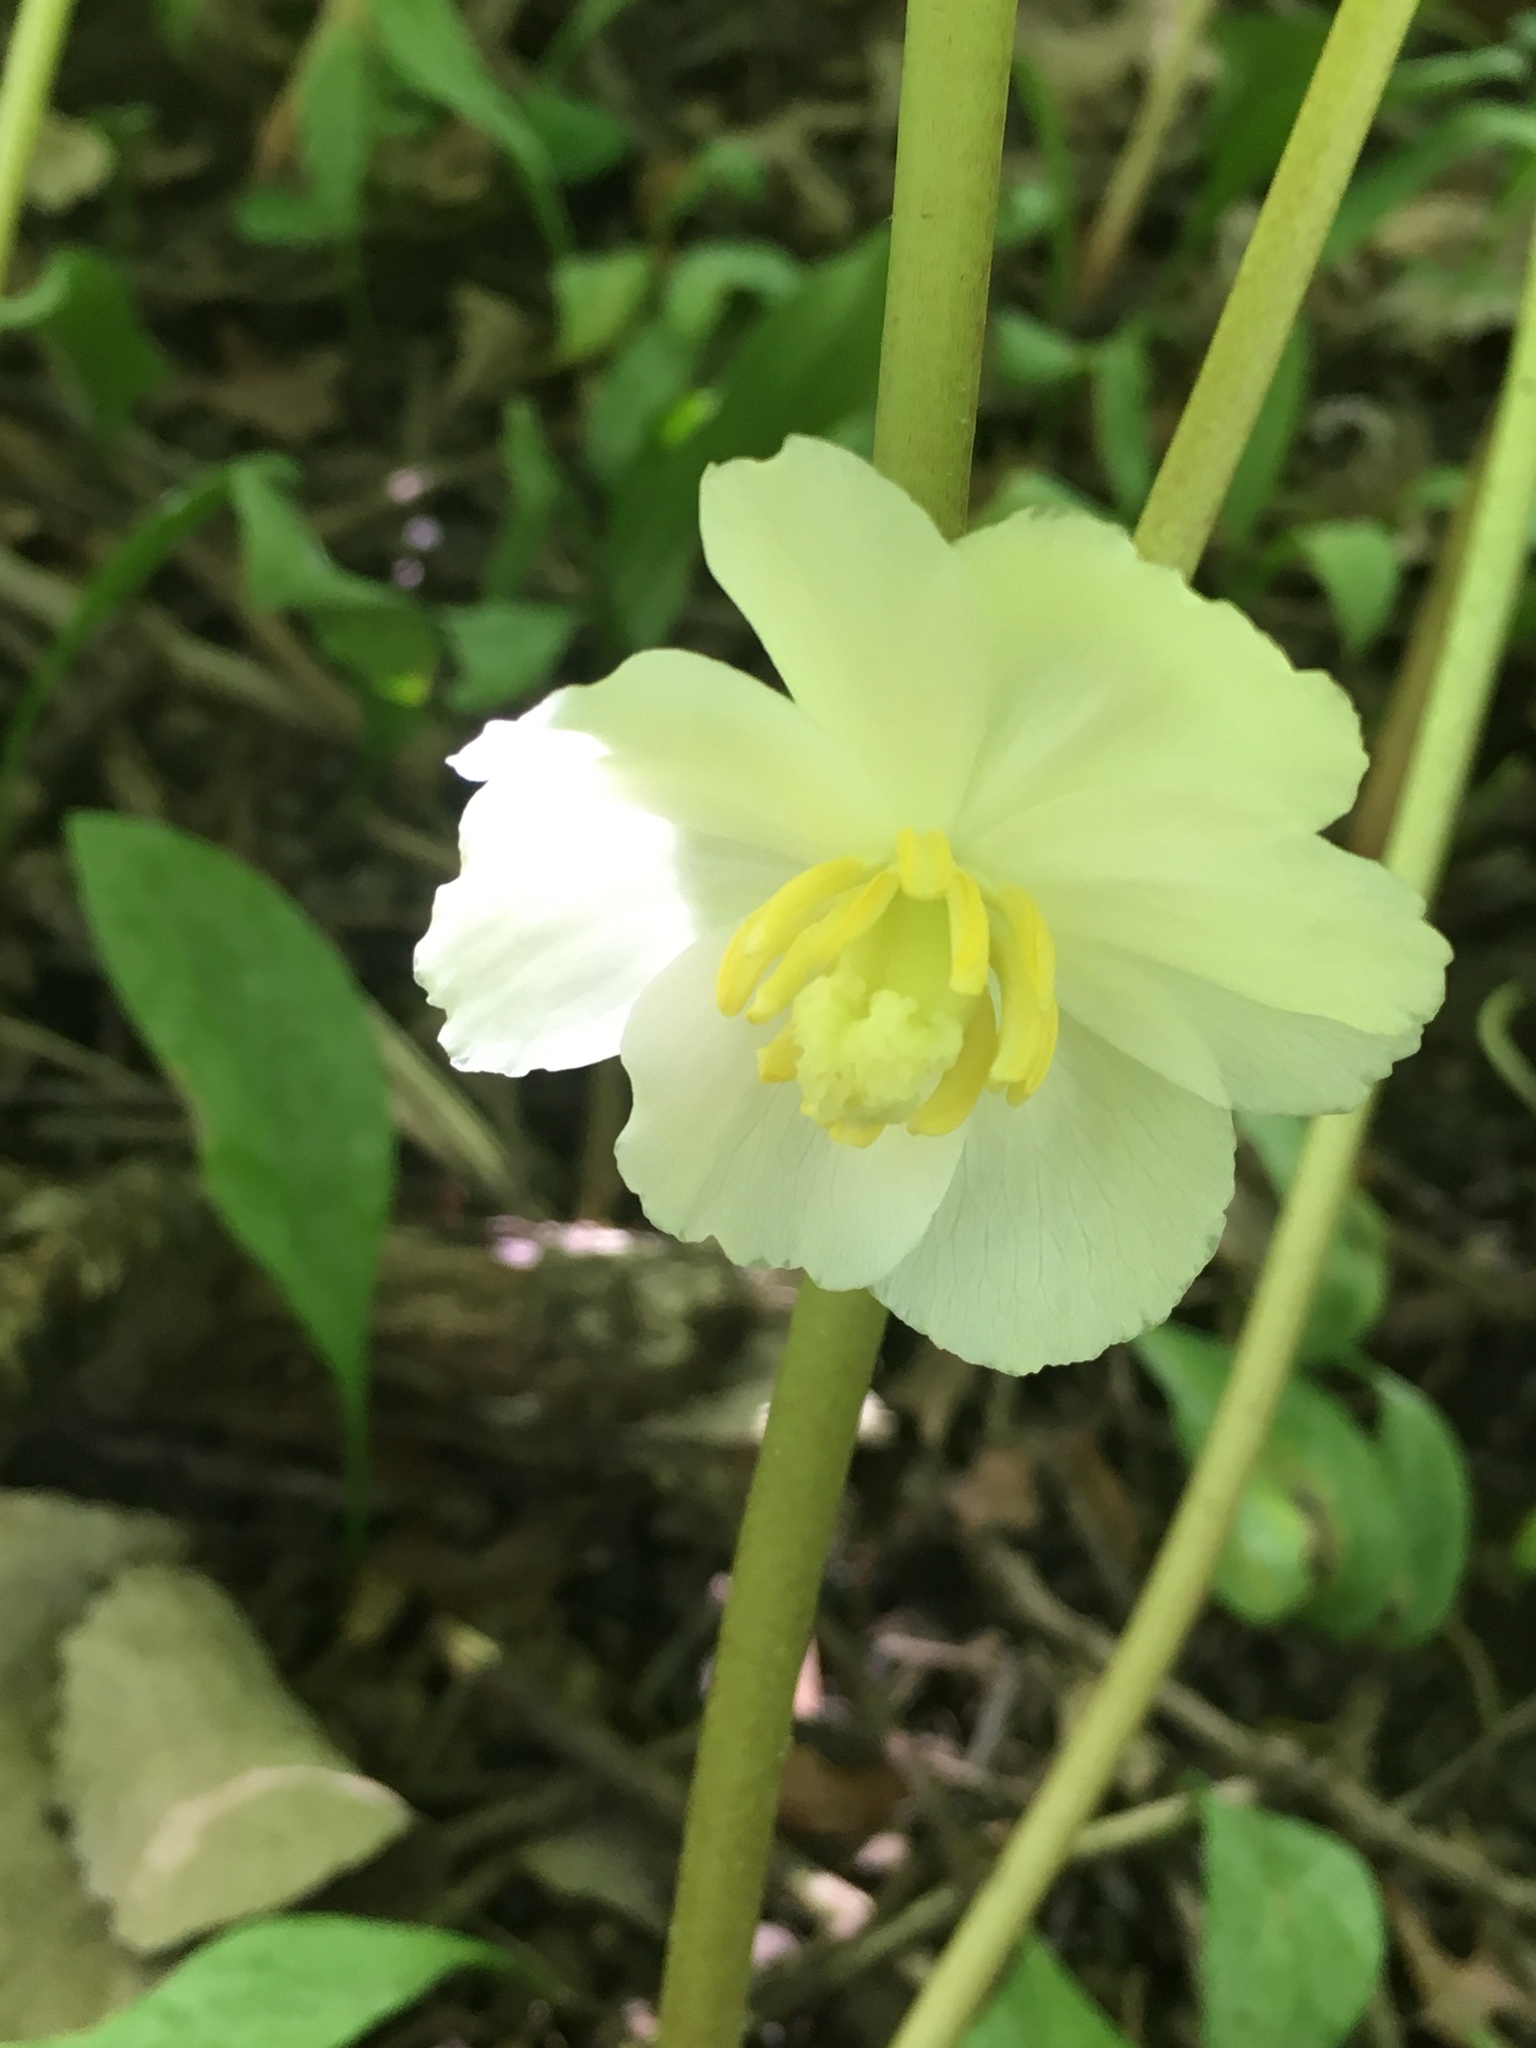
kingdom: Plantae
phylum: Tracheophyta
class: Magnoliopsida
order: Ranunculales
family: Berberidaceae
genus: Podophyllum
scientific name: Podophyllum peltatum
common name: Wild mandrake
